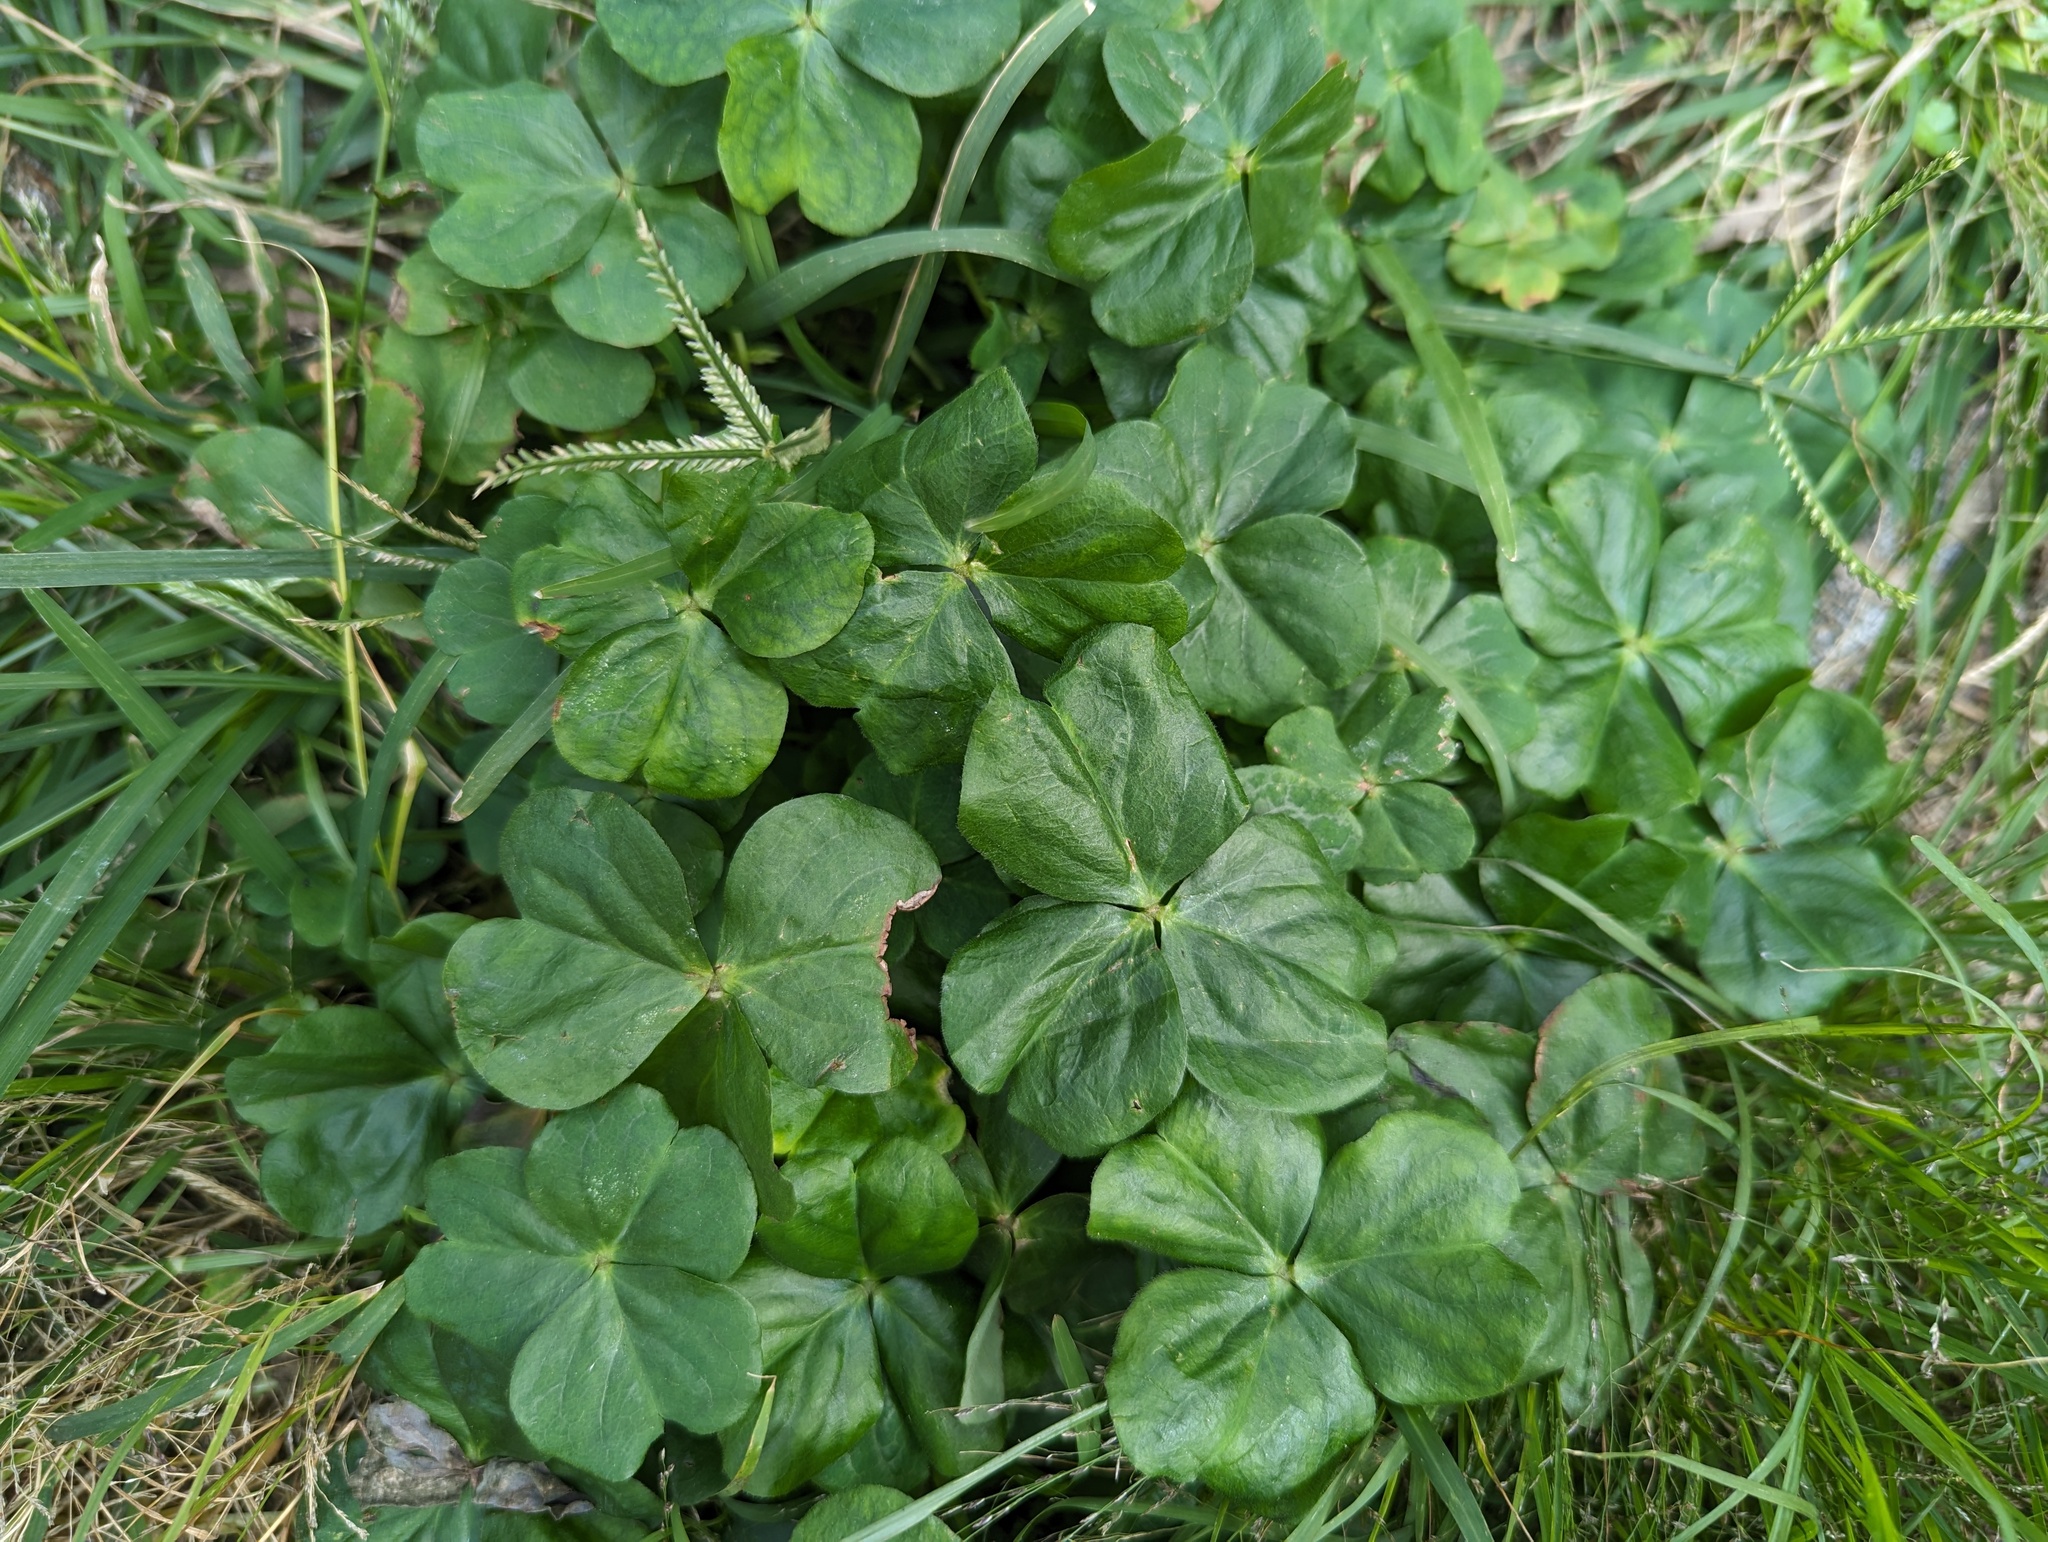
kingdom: Plantae
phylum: Tracheophyta
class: Magnoliopsida
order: Oxalidales
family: Oxalidaceae
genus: Oxalis
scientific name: Oxalis debilis
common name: Large-flowered pink-sorrel
